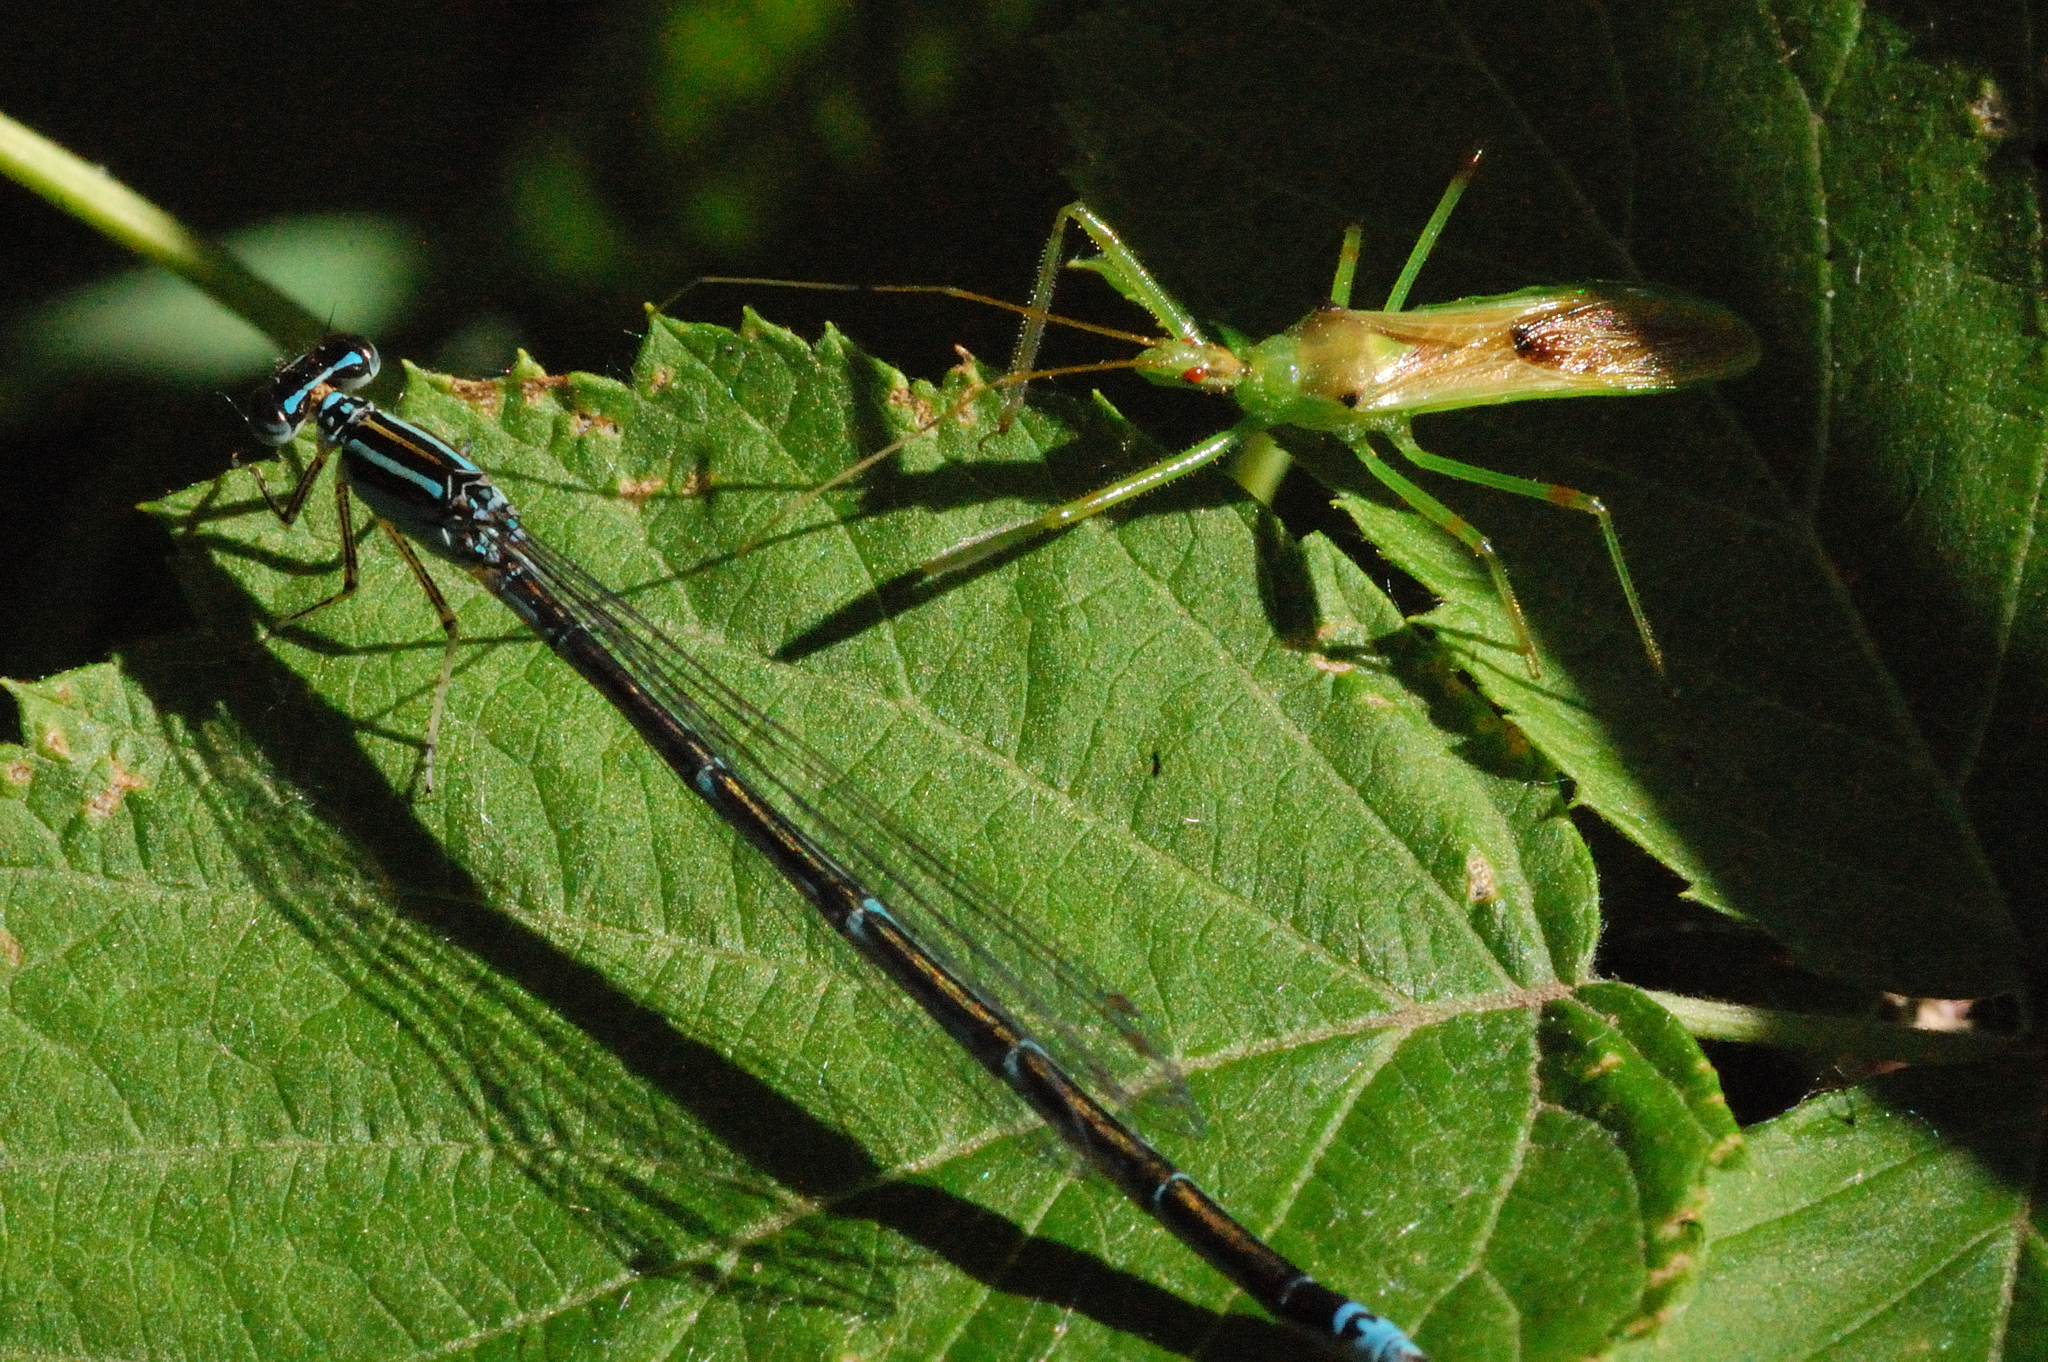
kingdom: Animalia
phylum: Arthropoda
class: Insecta
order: Hemiptera
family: Reduviidae
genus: Zelus
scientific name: Zelus luridus
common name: Pale green assassin bug
